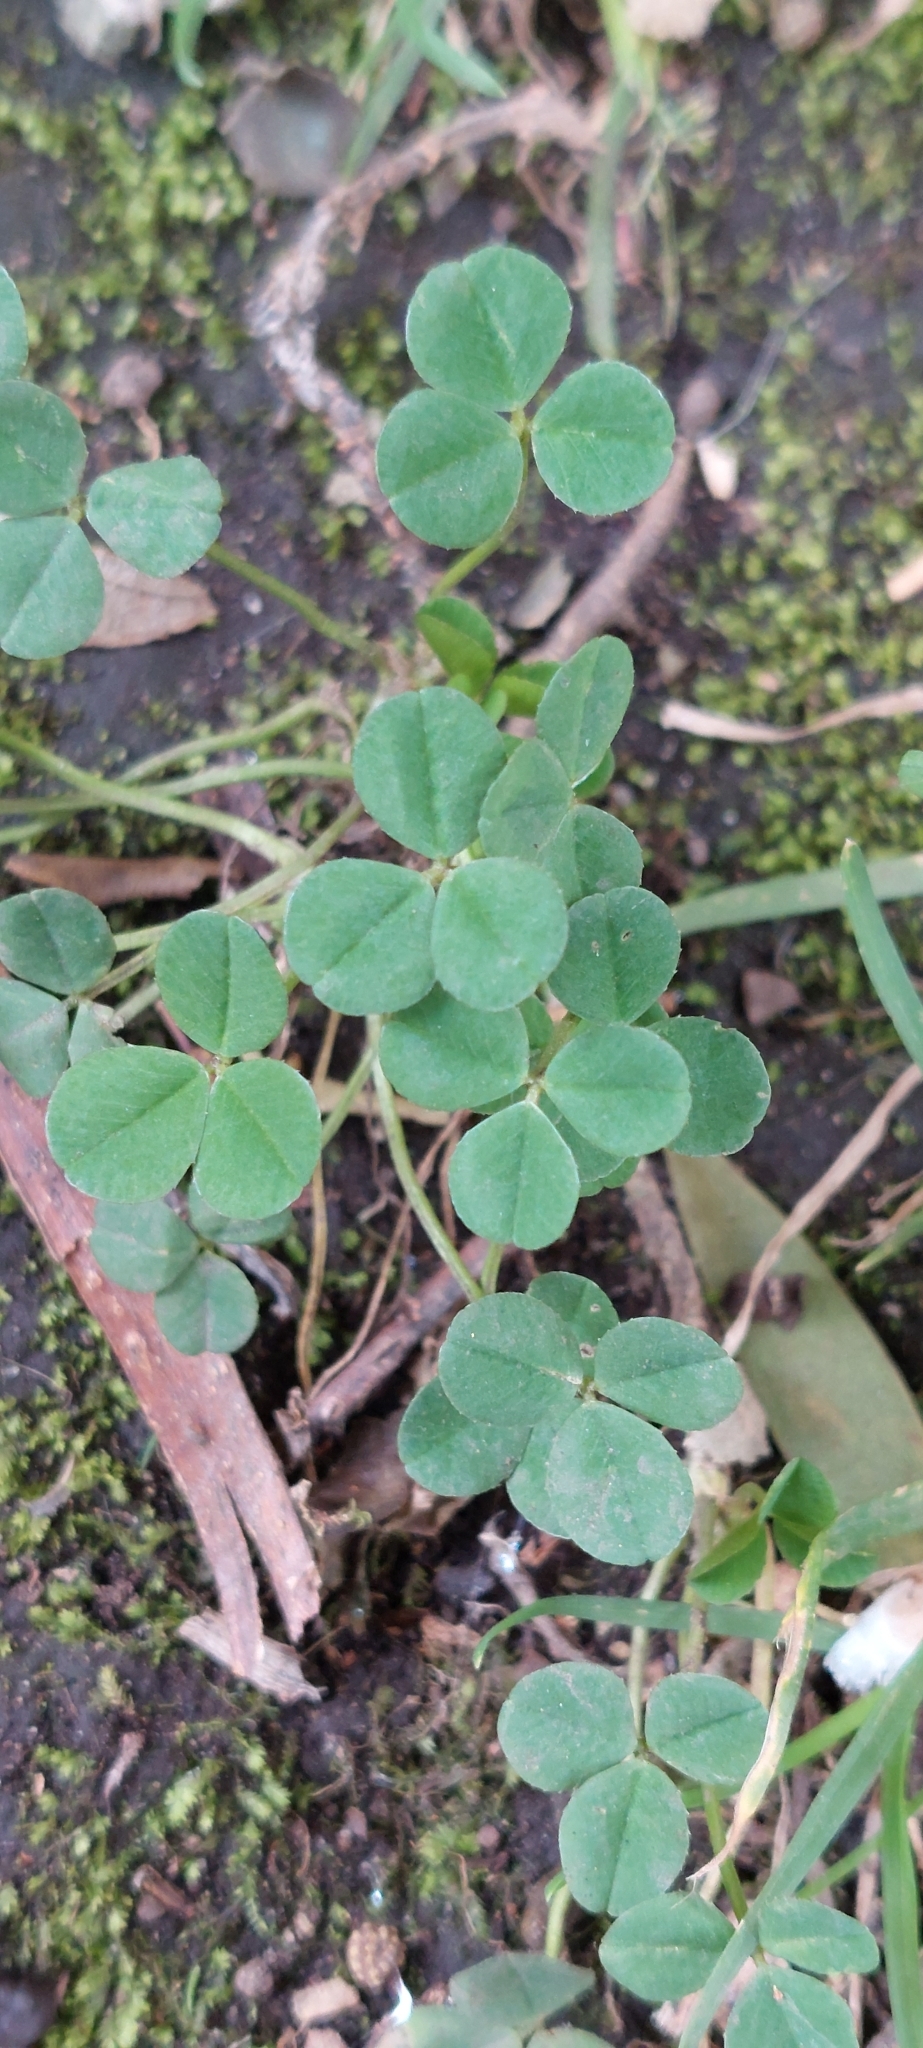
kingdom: Plantae
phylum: Tracheophyta
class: Magnoliopsida
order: Fabales
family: Fabaceae
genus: Trifolium
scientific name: Trifolium repens
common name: White clover
